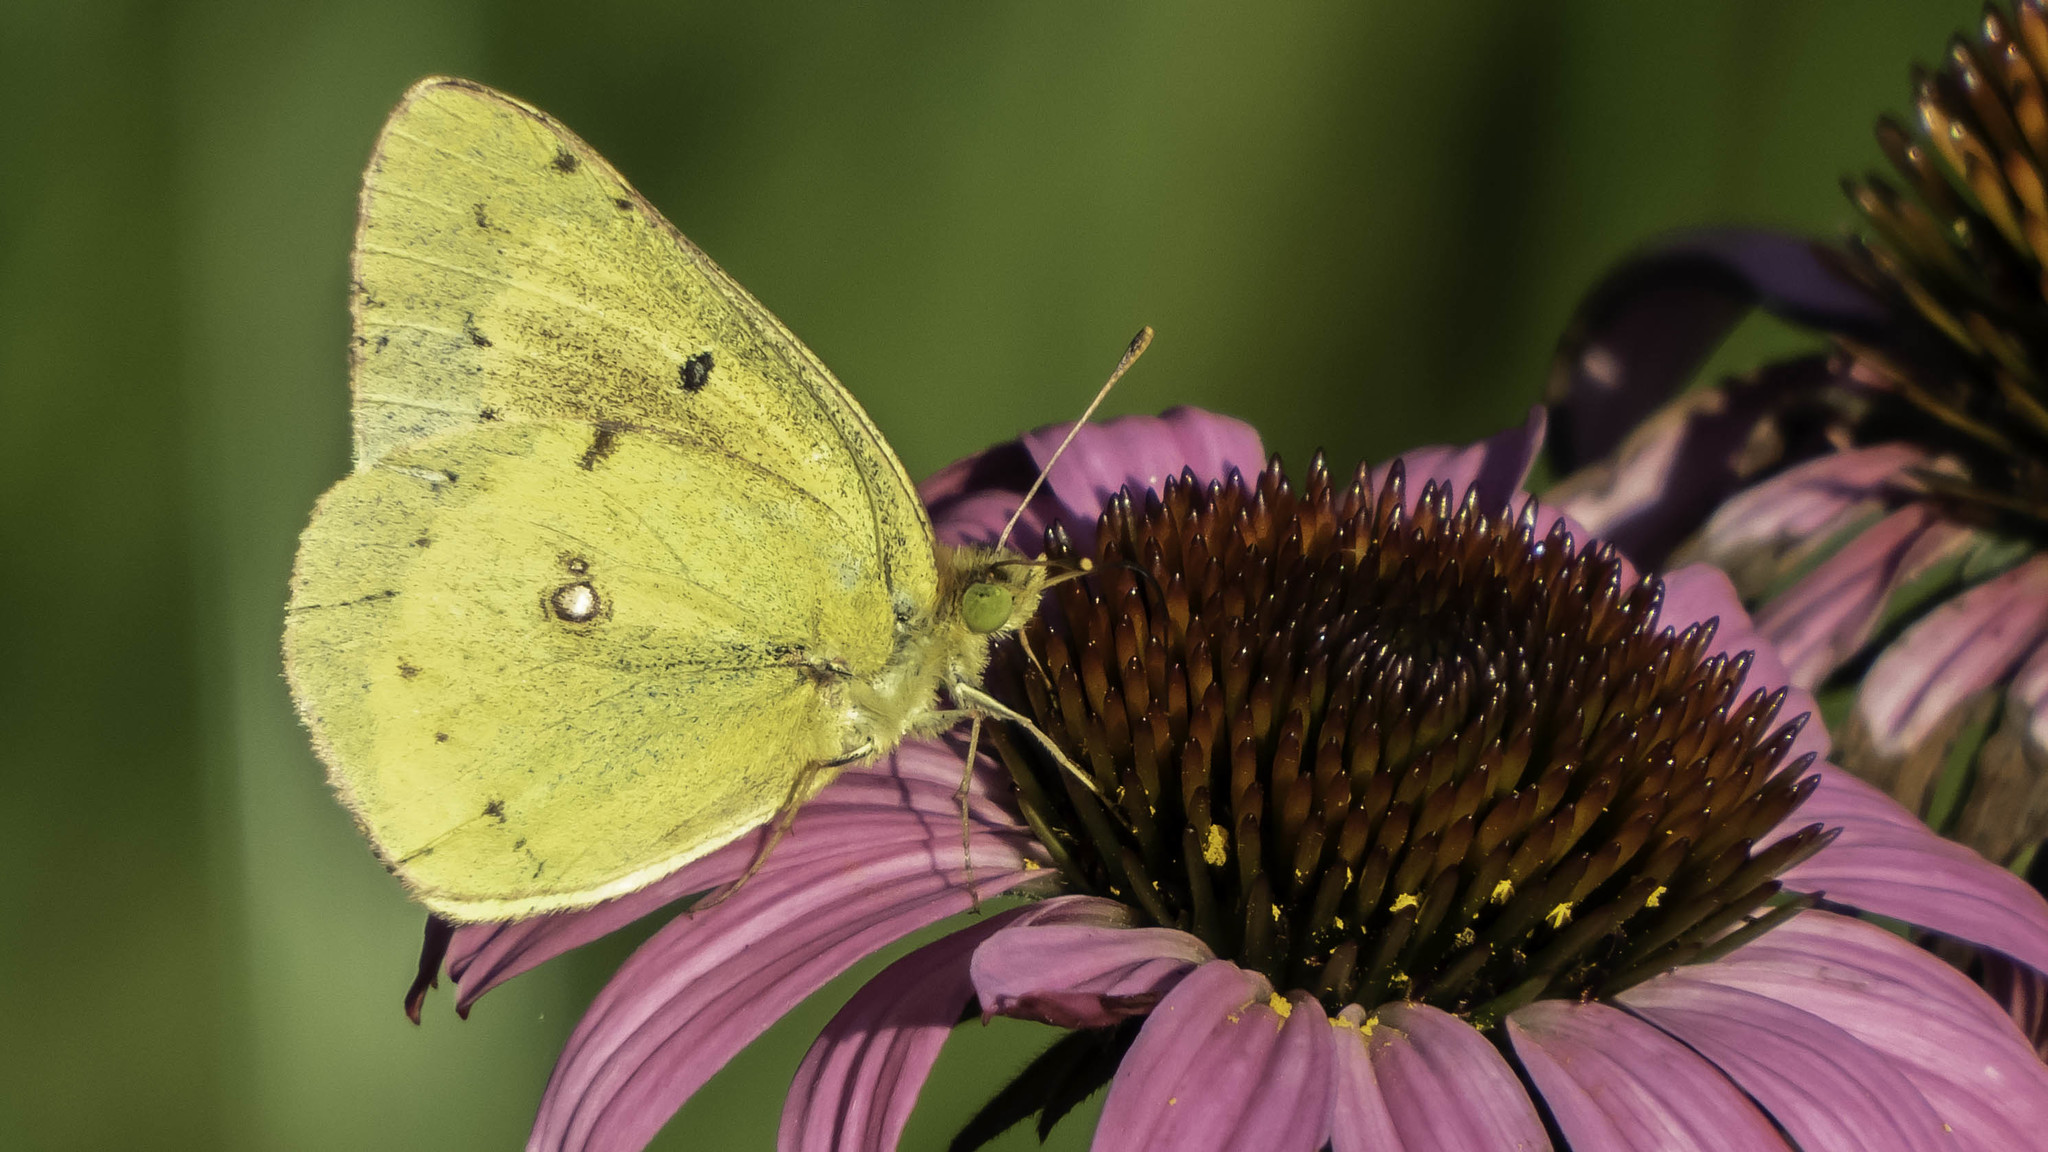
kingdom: Animalia
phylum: Arthropoda
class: Insecta
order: Lepidoptera
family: Pieridae
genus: Colias
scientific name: Colias eurytheme
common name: Alfalfa butterfly
